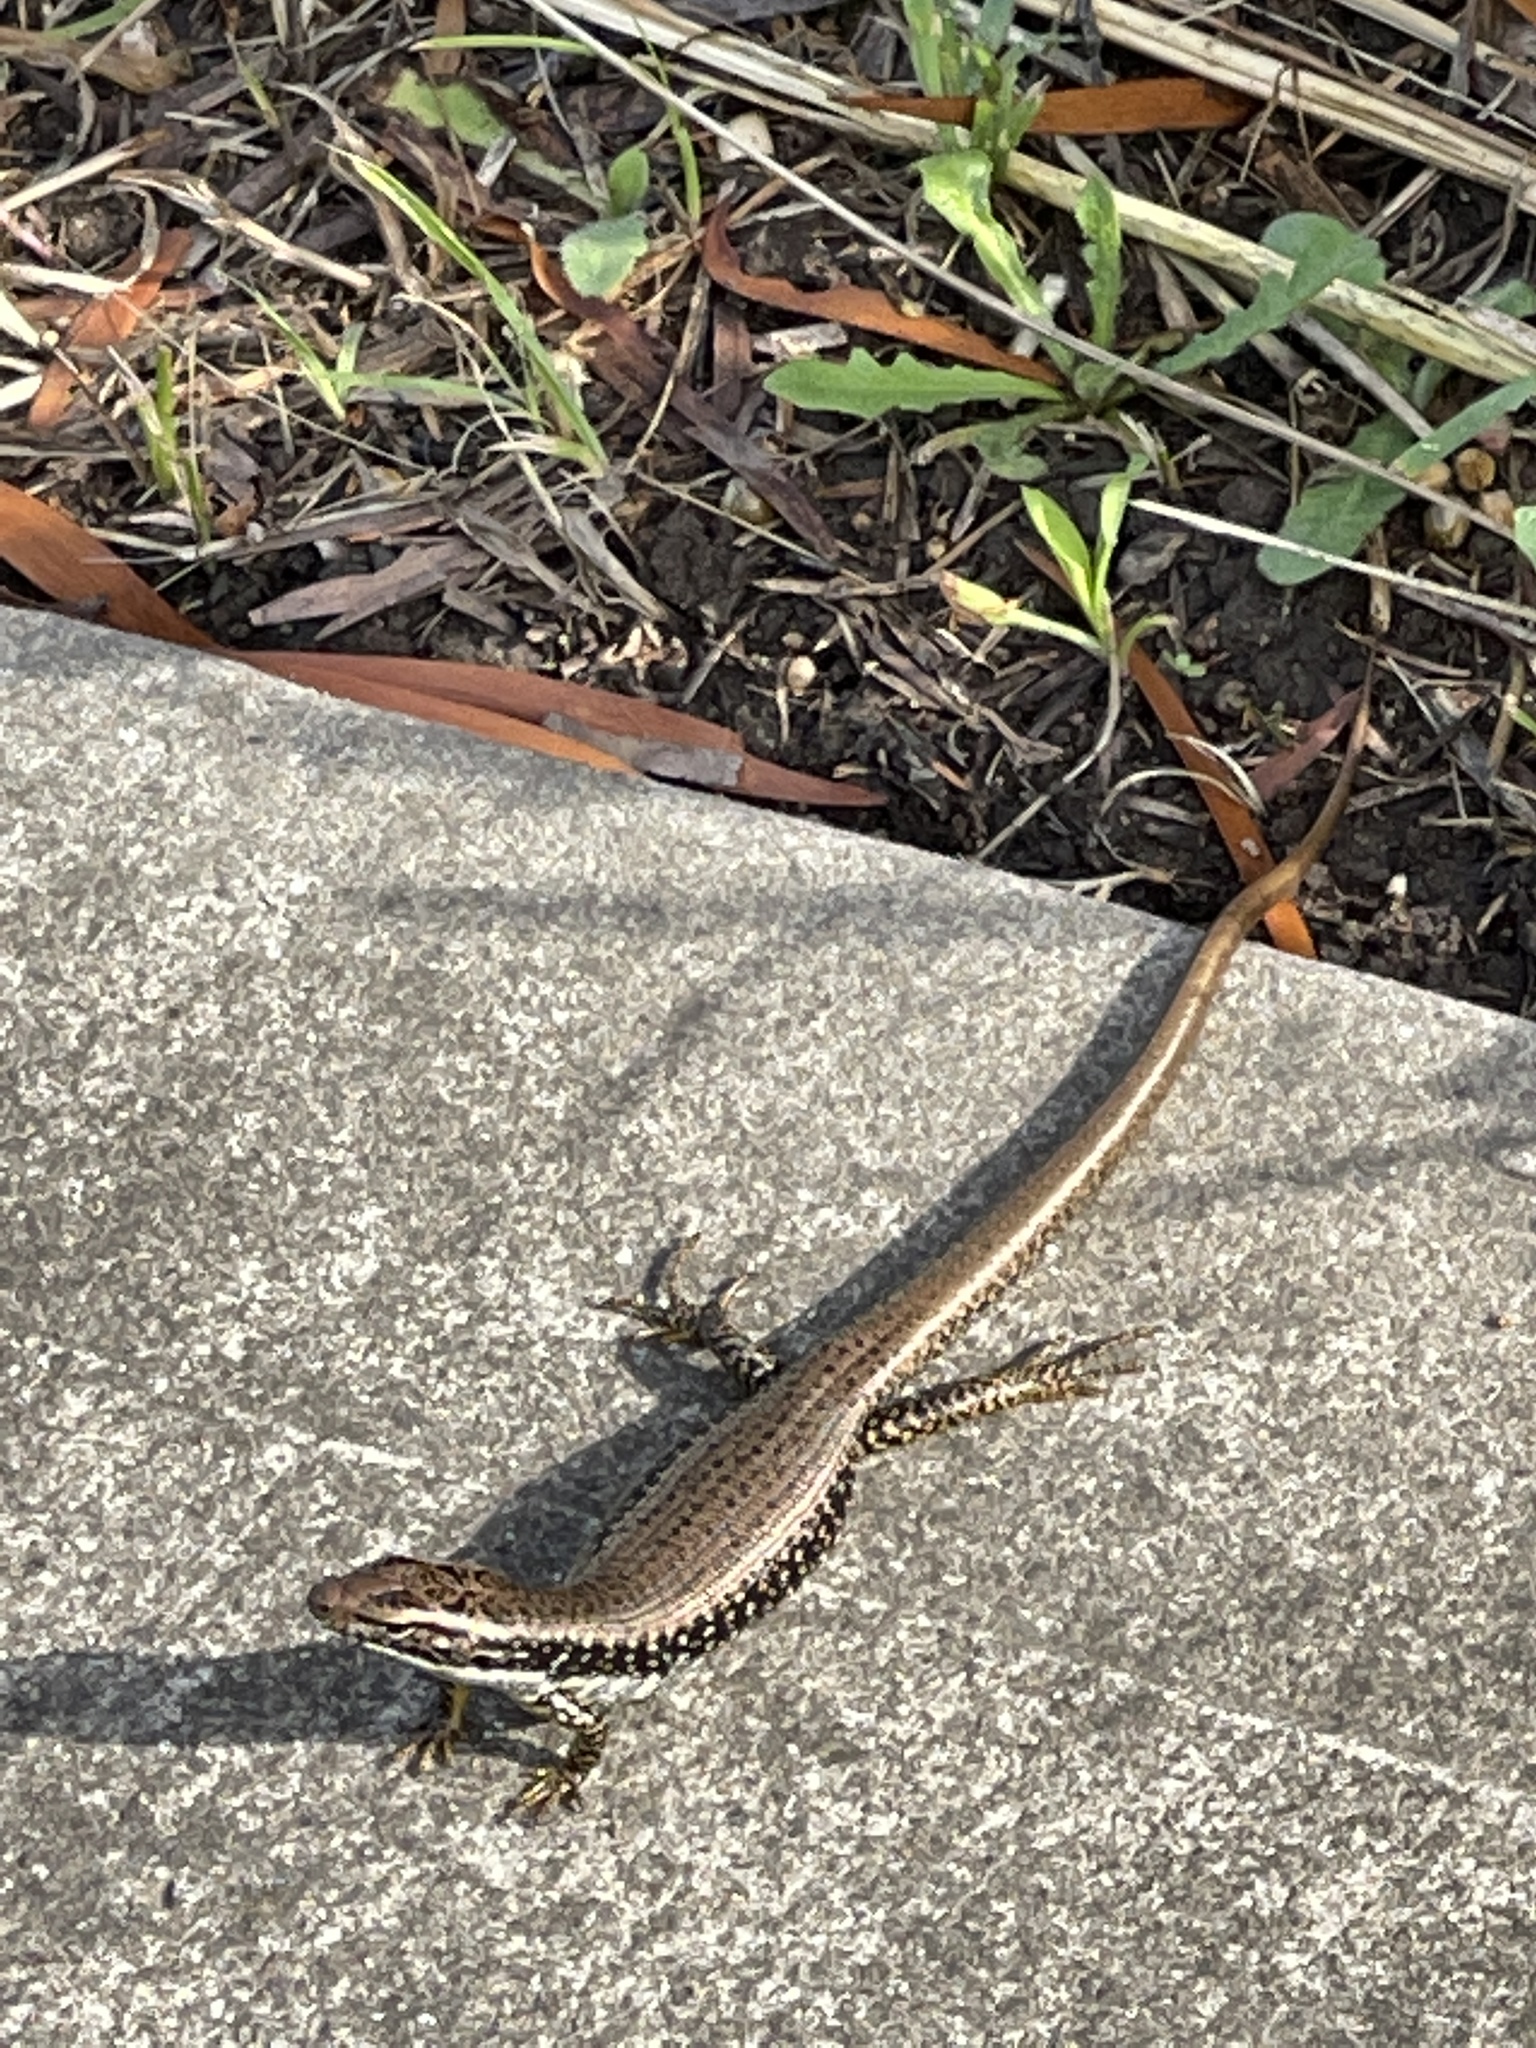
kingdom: Animalia
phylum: Chordata
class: Squamata
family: Scincidae
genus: Eulamprus
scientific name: Eulamprus heatwolei
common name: Warm-temperate water-skink
